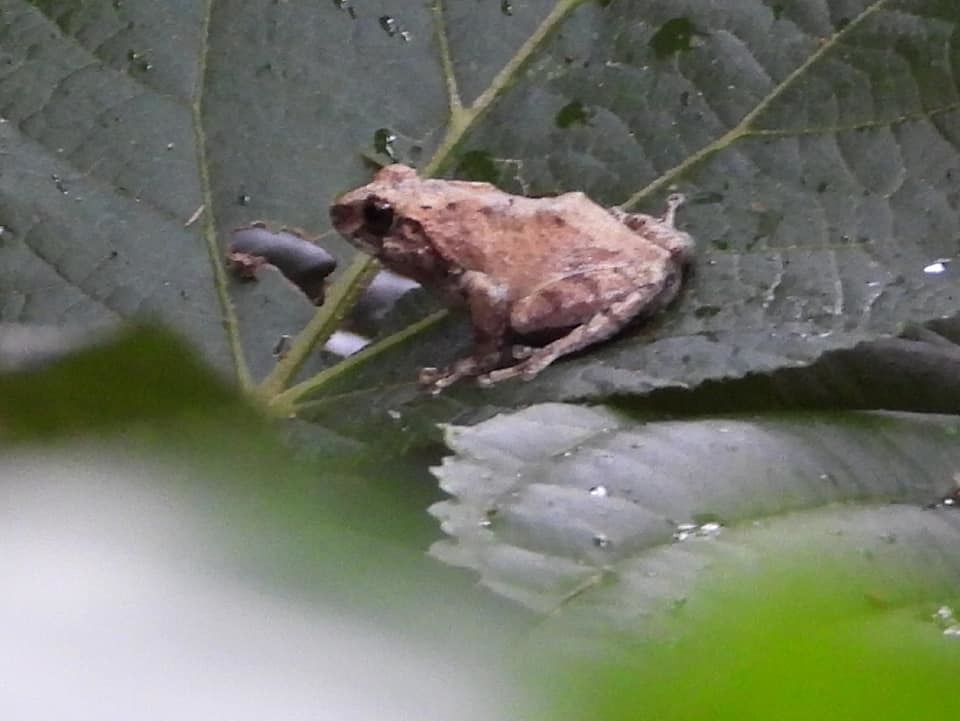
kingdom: Animalia
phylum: Chordata
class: Amphibia
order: Anura
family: Rhacophoridae
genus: Philautus
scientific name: Philautus sanctisilvaticus
